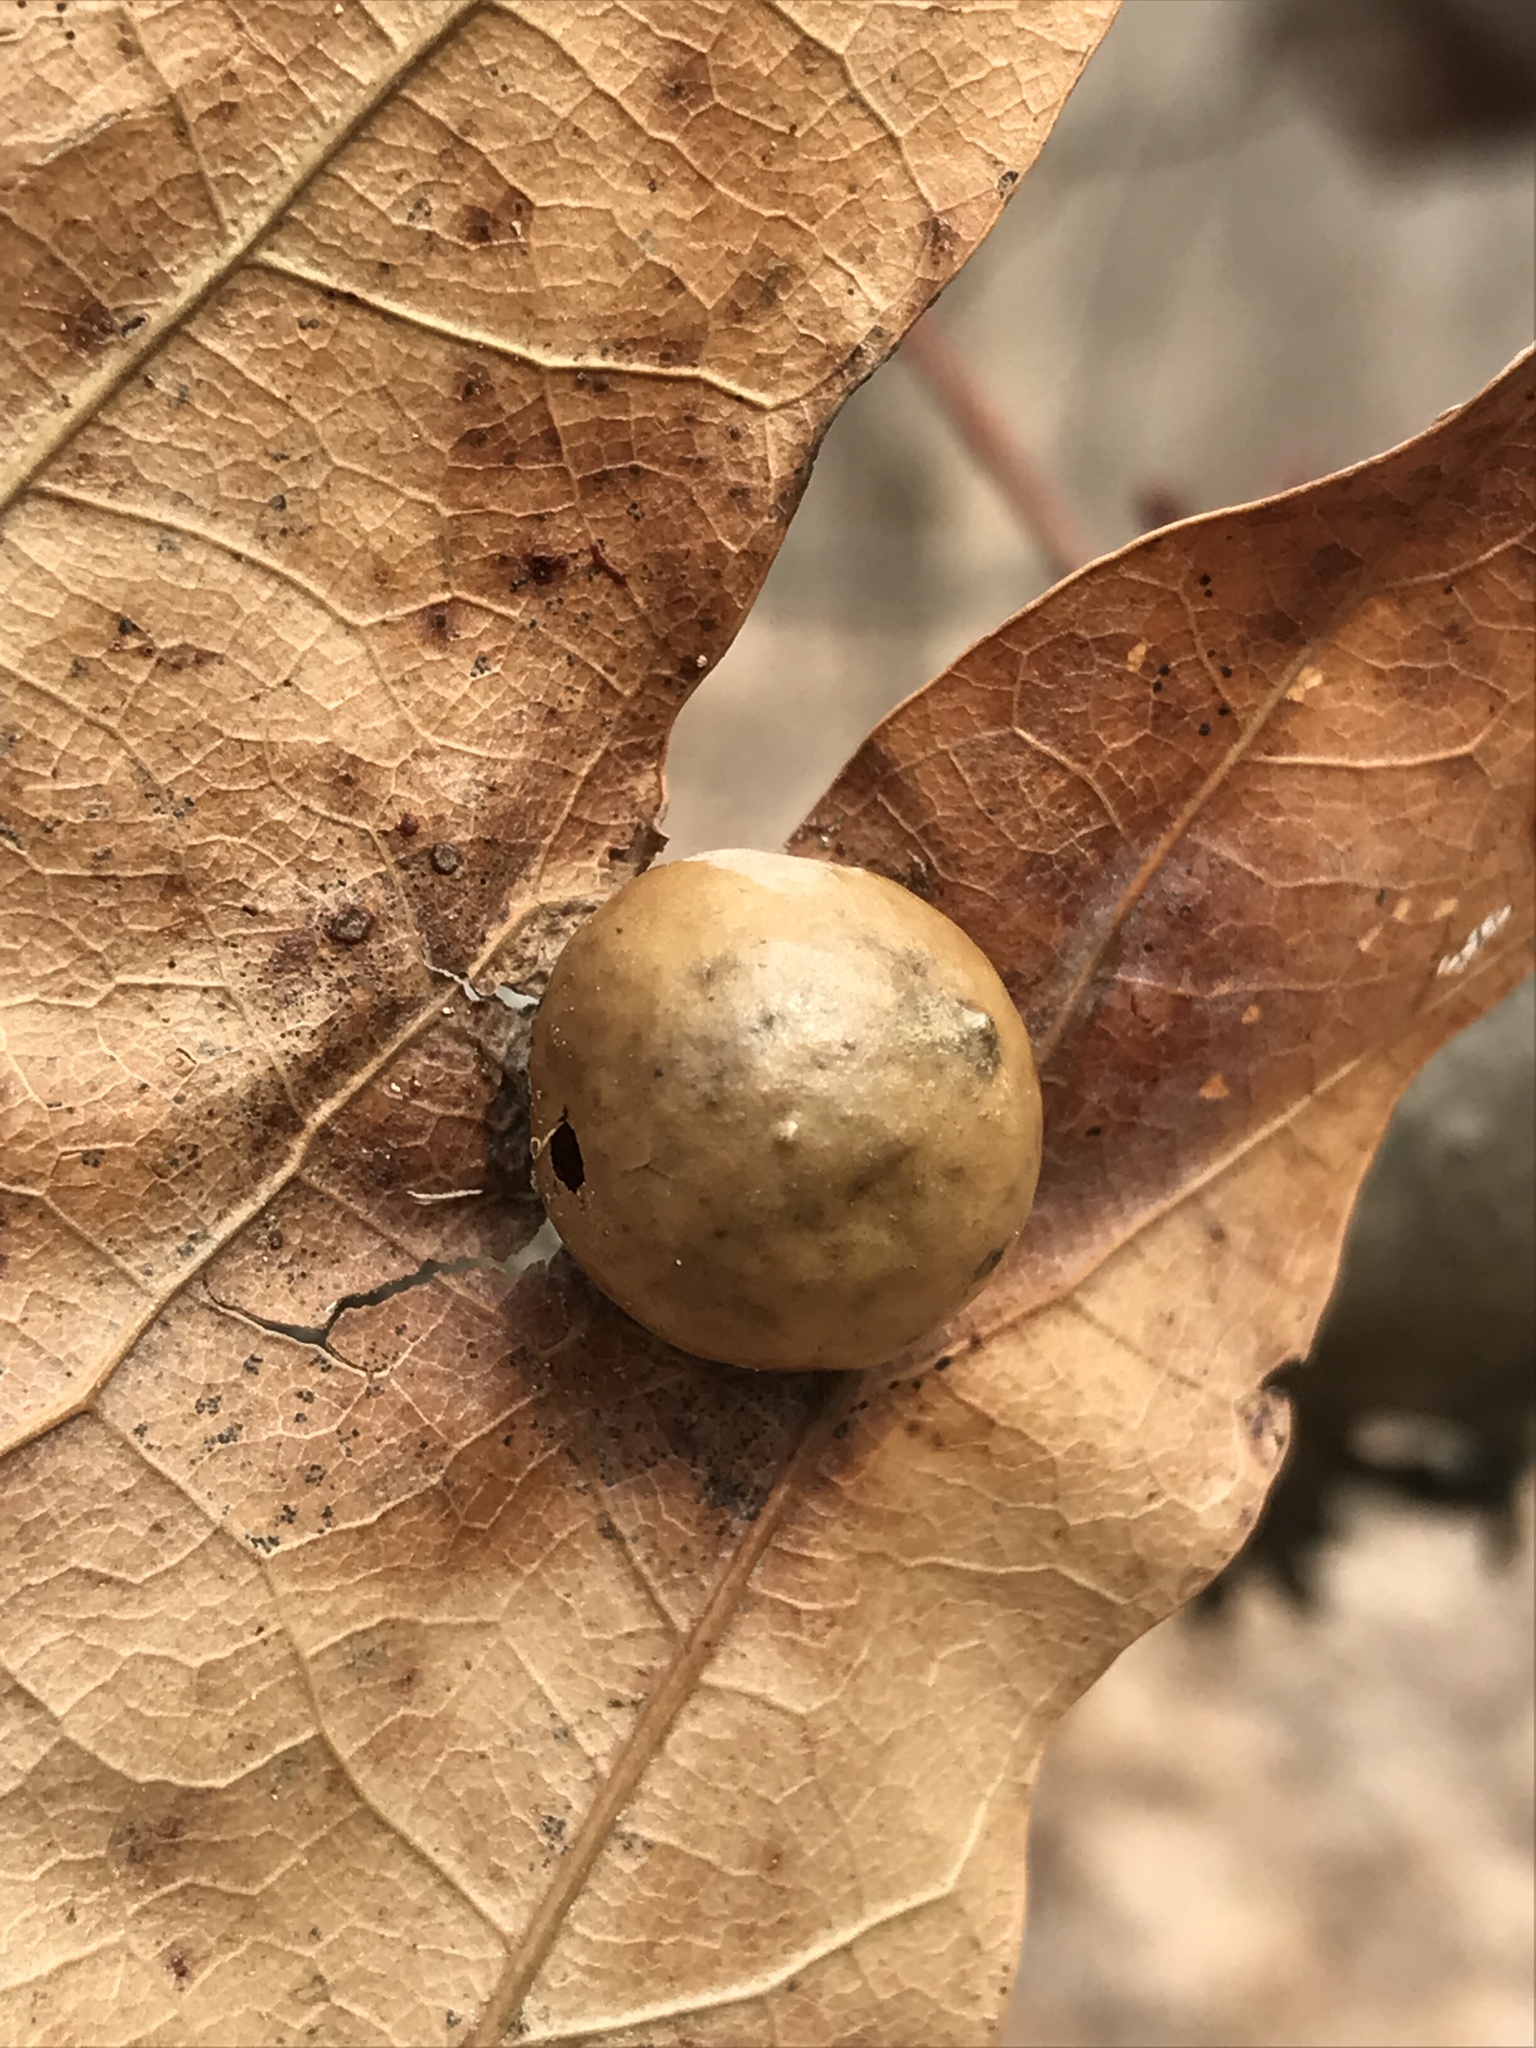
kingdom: Animalia
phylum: Arthropoda
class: Insecta
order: Hymenoptera
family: Cynipidae
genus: Amphibolips
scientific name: Amphibolips
